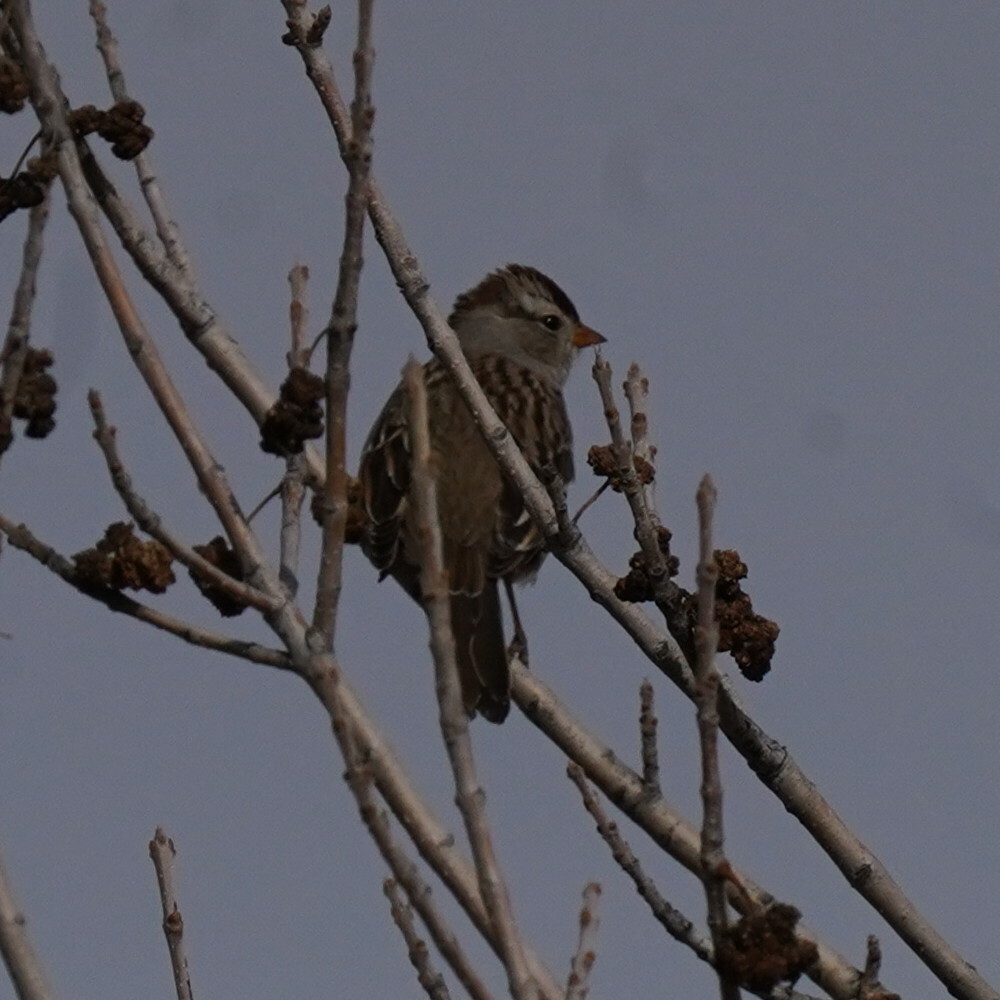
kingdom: Animalia
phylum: Chordata
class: Aves
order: Passeriformes
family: Passerellidae
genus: Zonotrichia
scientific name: Zonotrichia leucophrys
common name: White-crowned sparrow
